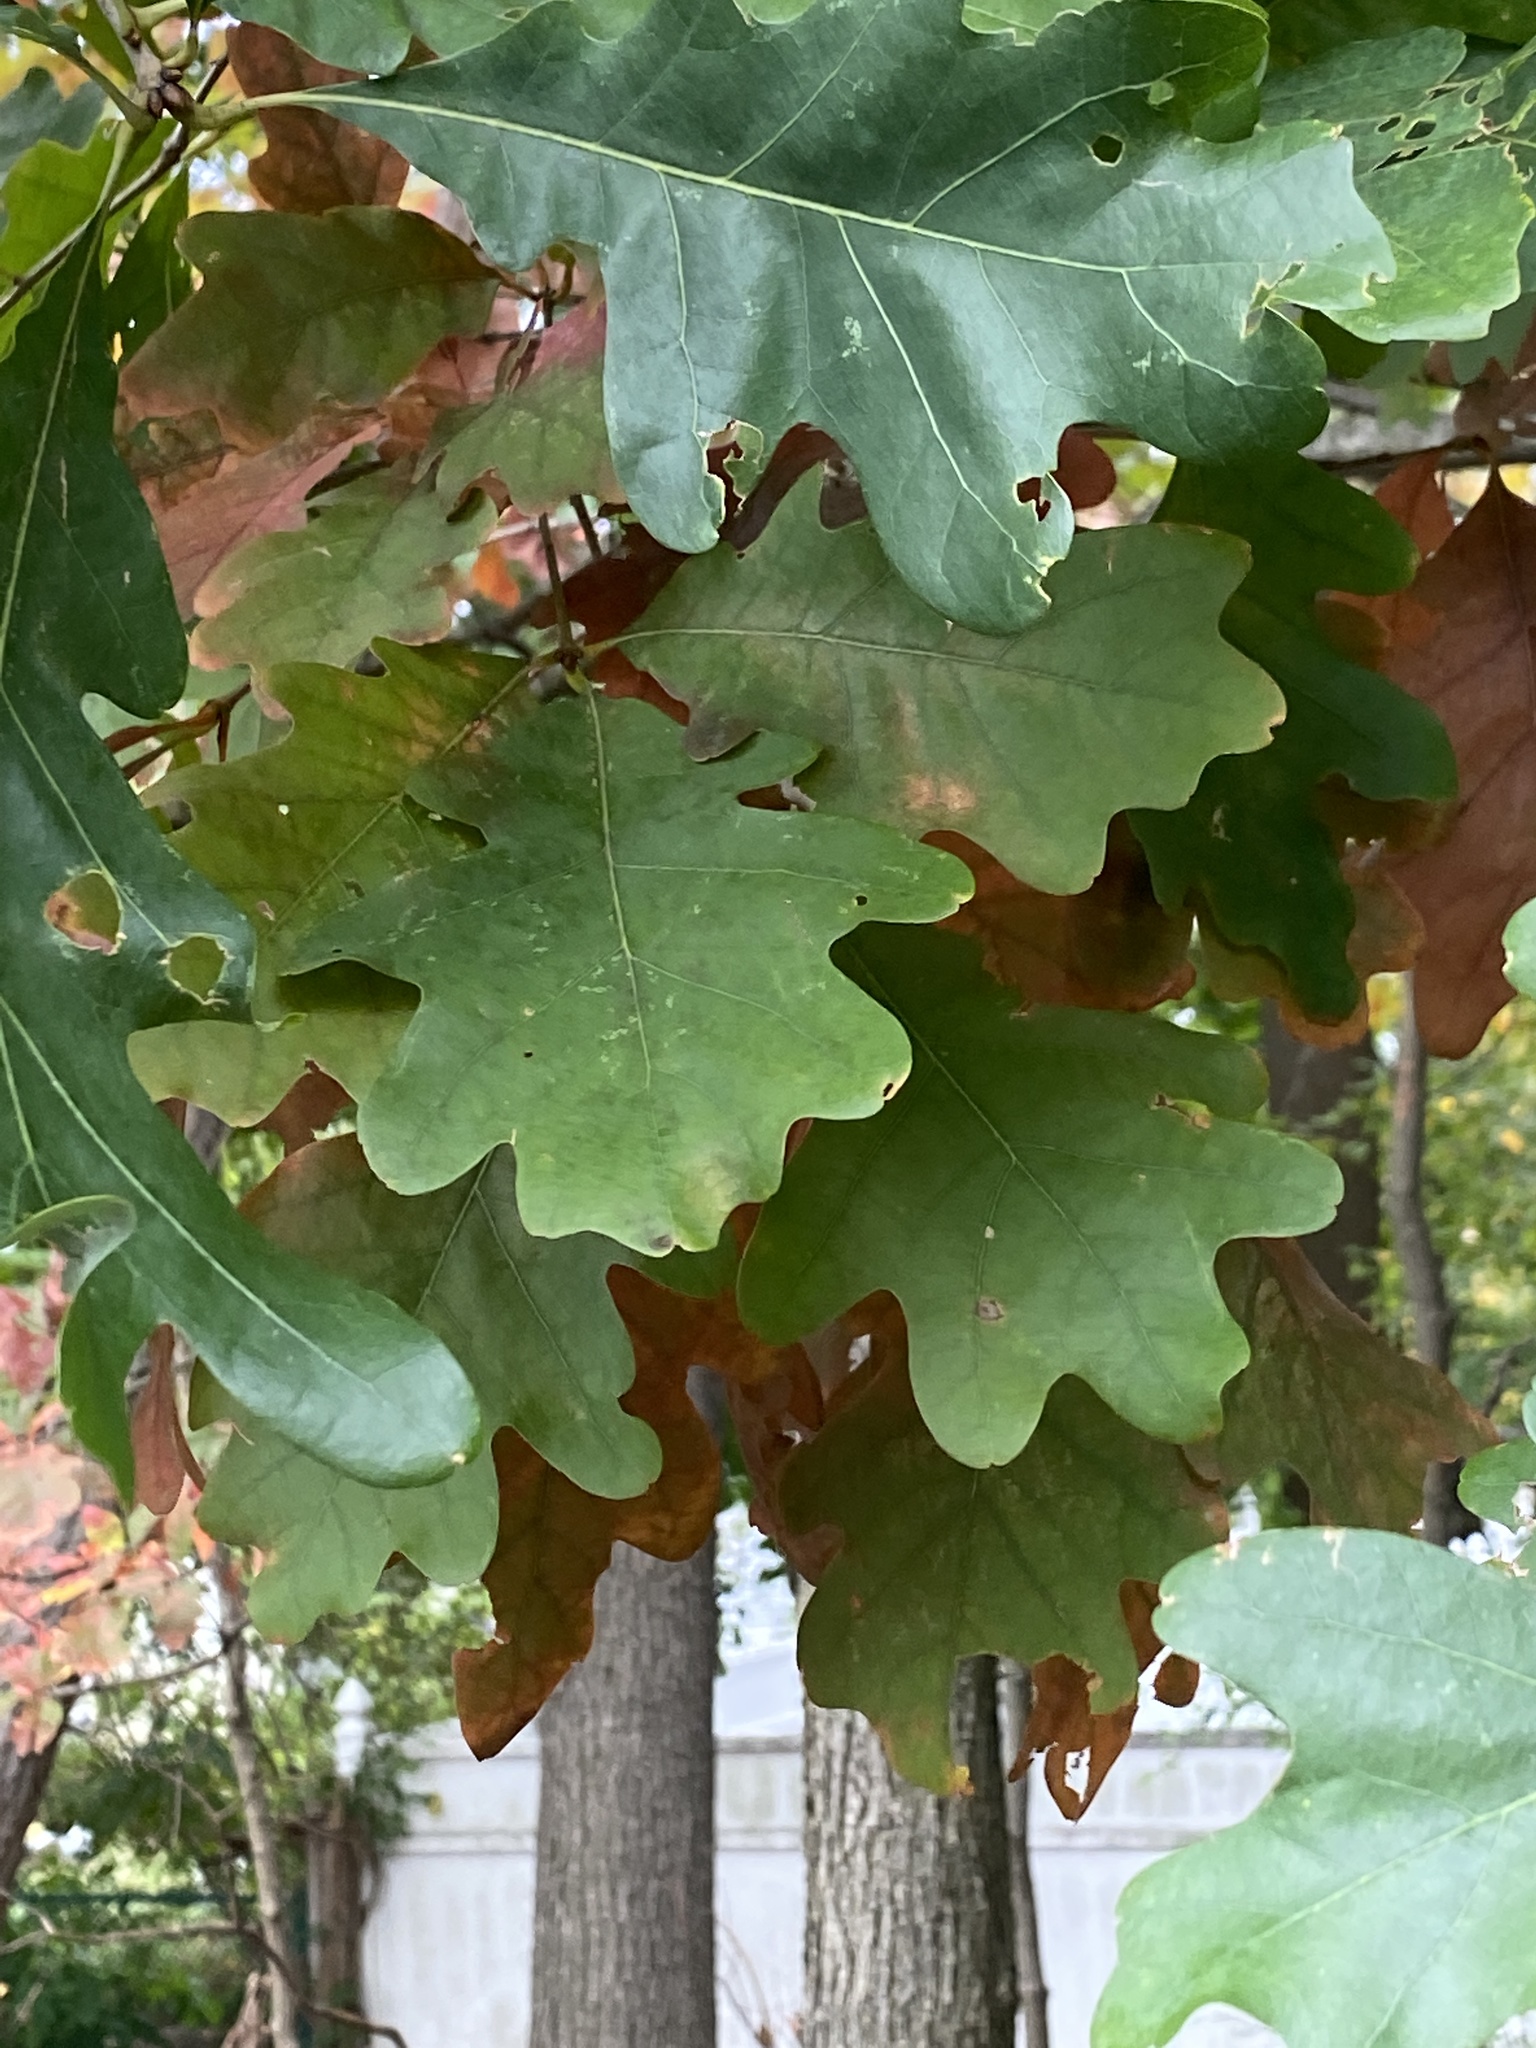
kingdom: Plantae
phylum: Tracheophyta
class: Magnoliopsida
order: Fagales
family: Fagaceae
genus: Quercus
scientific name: Quercus alba
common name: White oak
